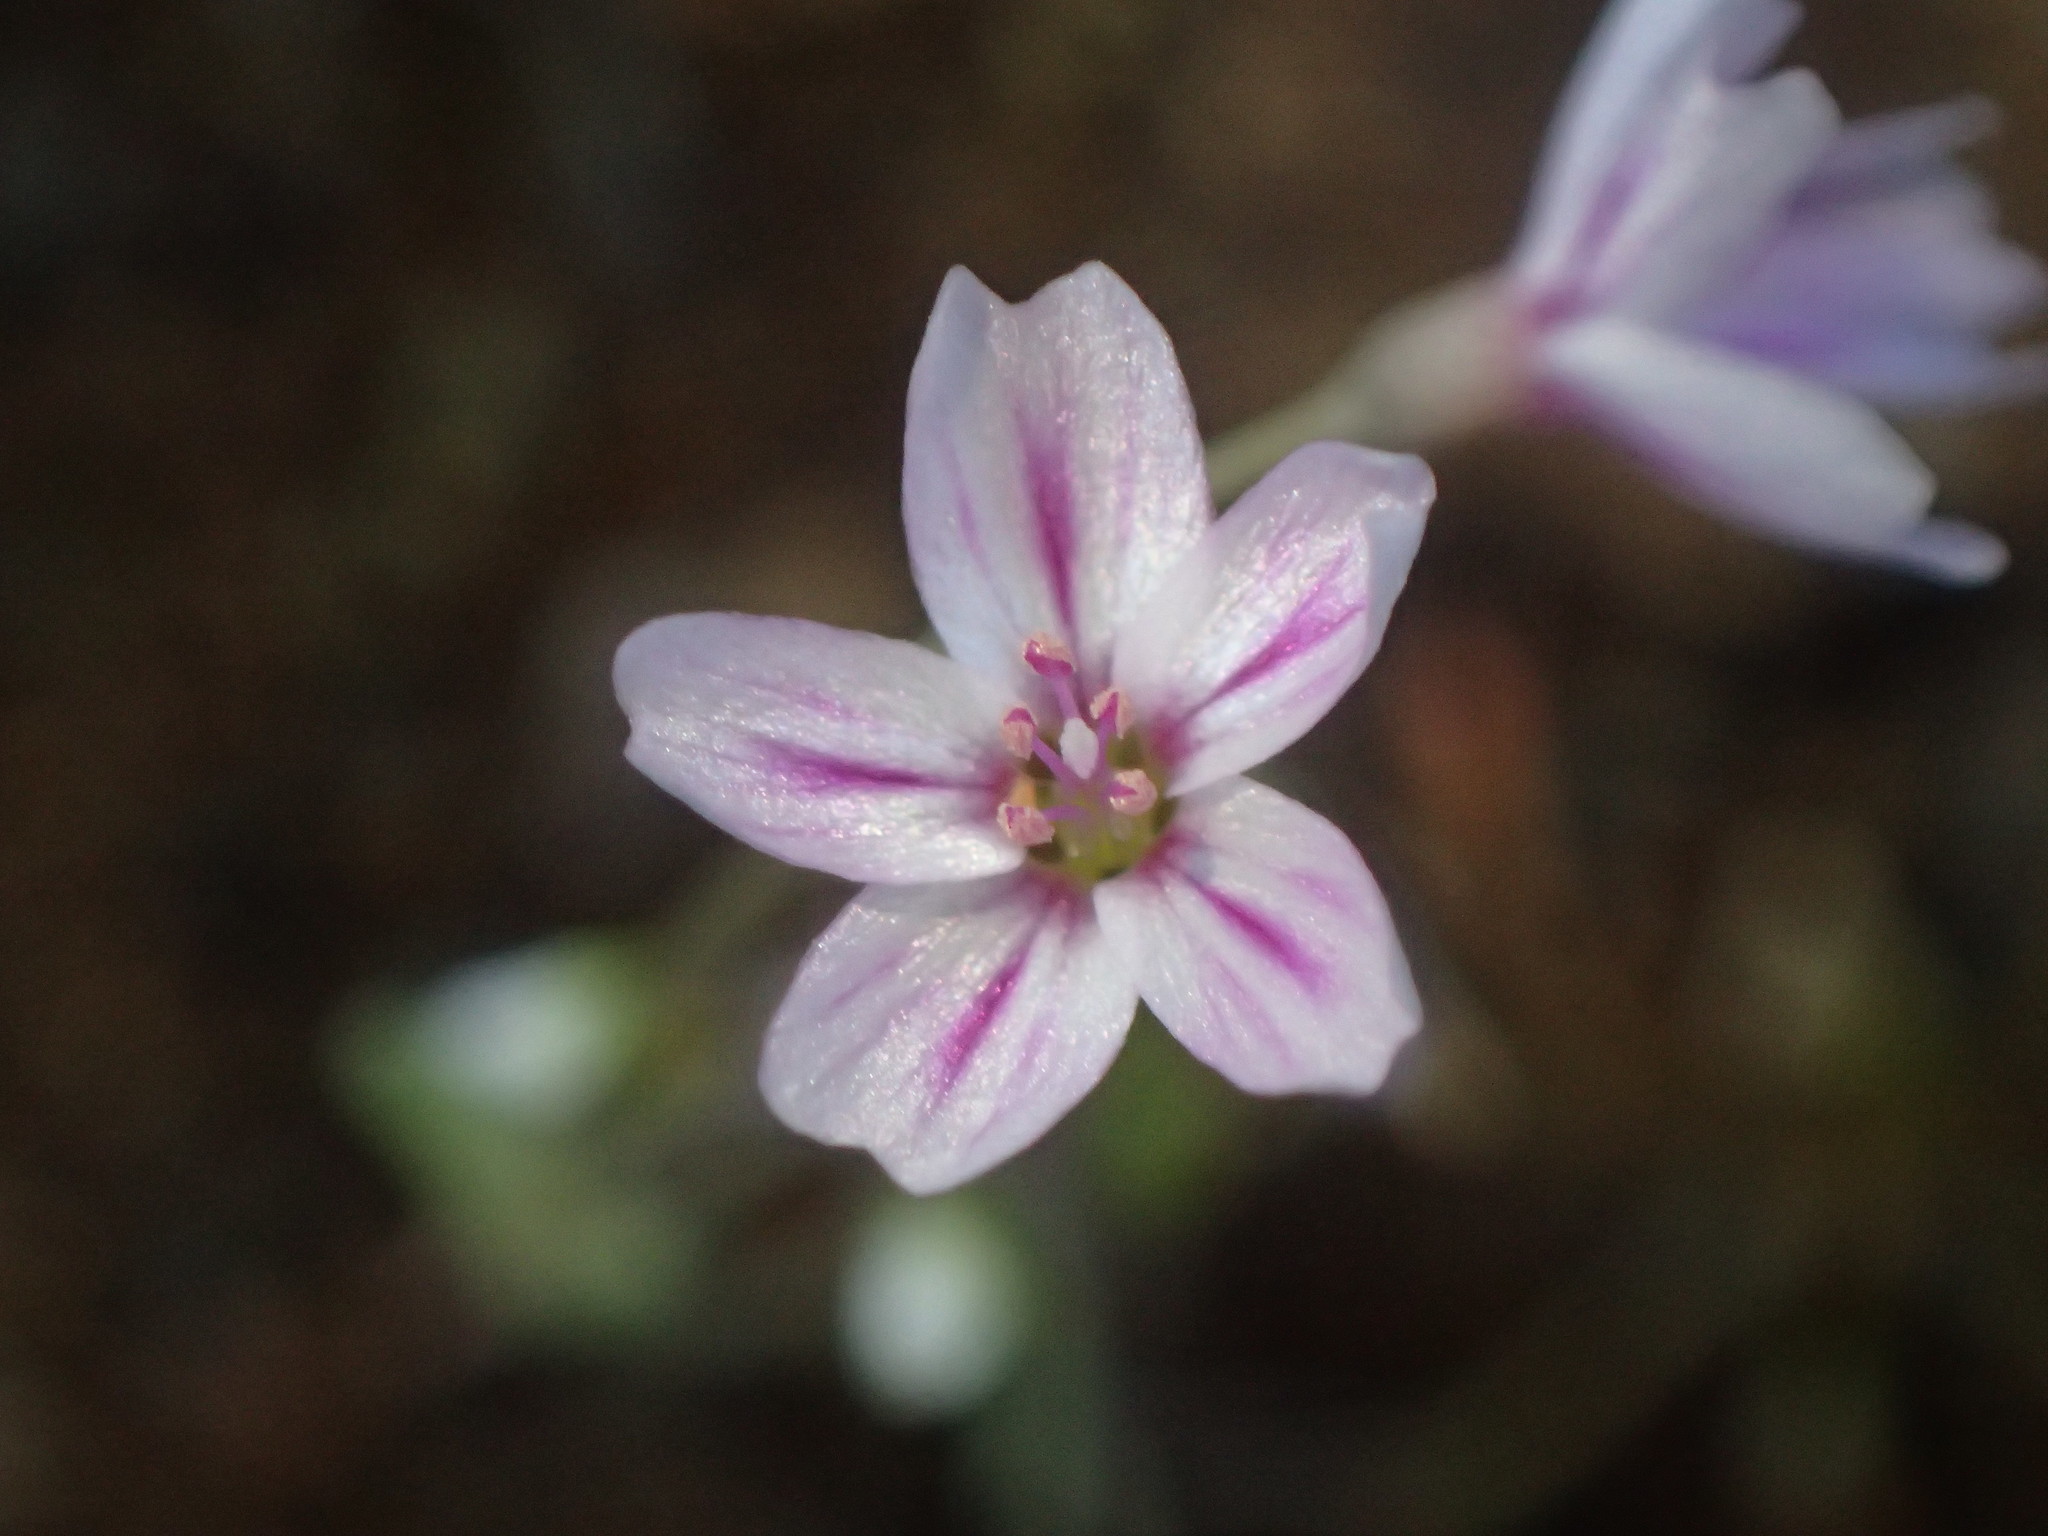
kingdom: Plantae
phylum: Tracheophyta
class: Magnoliopsida
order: Caryophyllales
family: Montiaceae
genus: Claytonia
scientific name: Claytonia gypsophiloides
